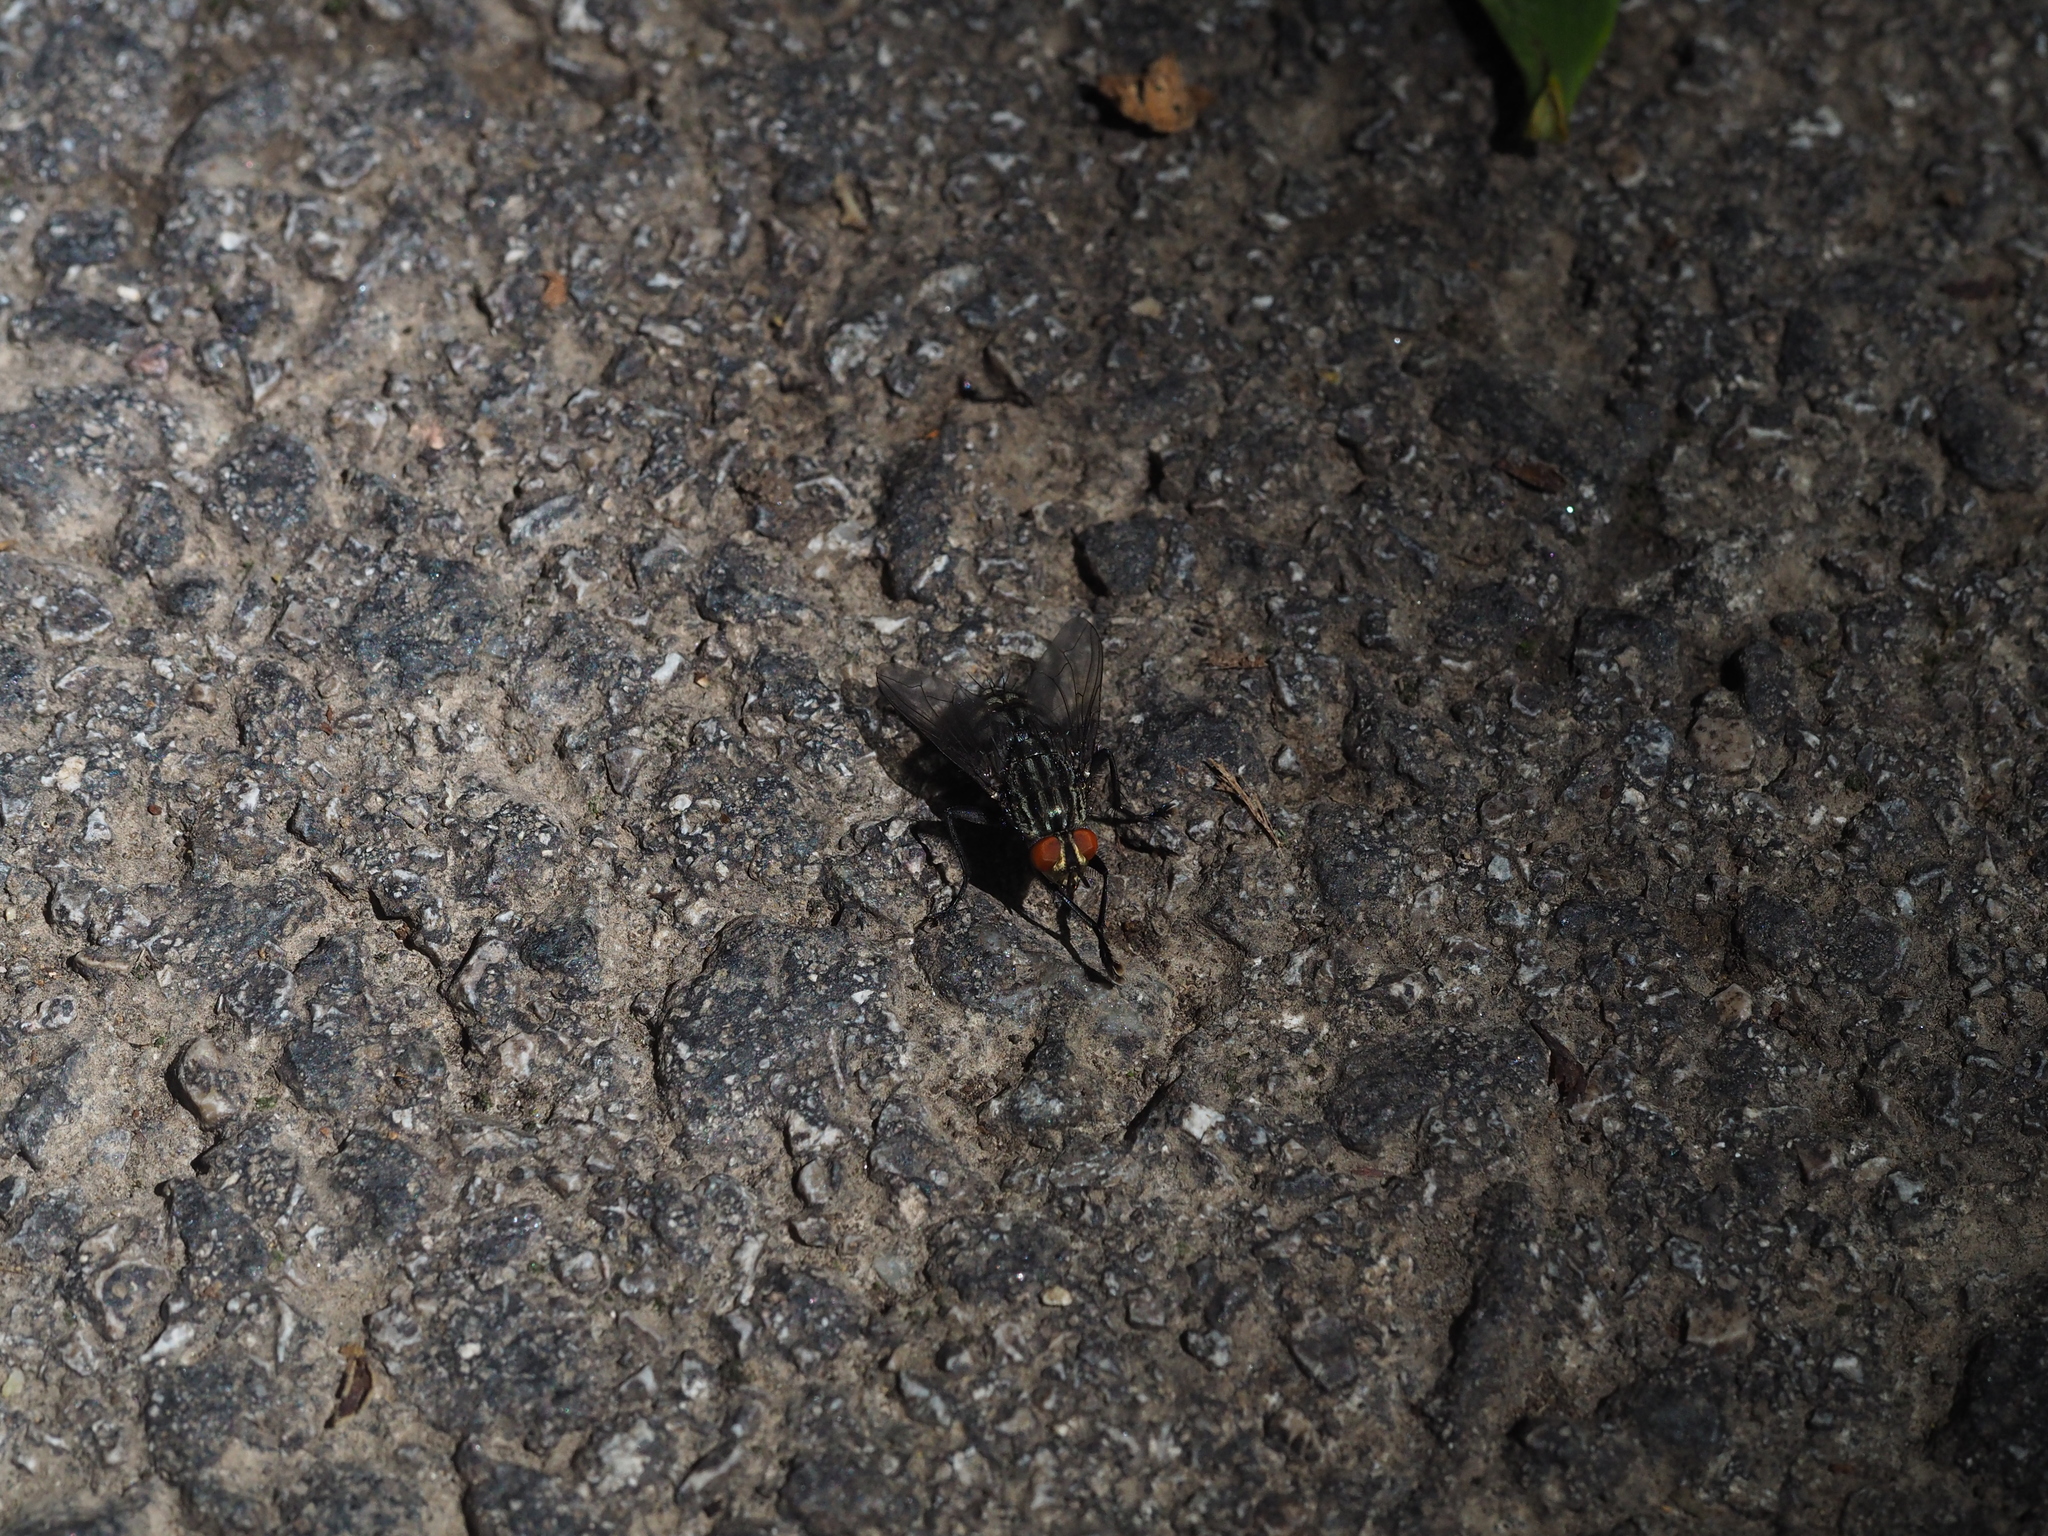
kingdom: Animalia
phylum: Arthropoda
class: Insecta
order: Diptera
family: Sarcophagidae
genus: Sarcophaga
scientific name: Sarcophaga variegata
